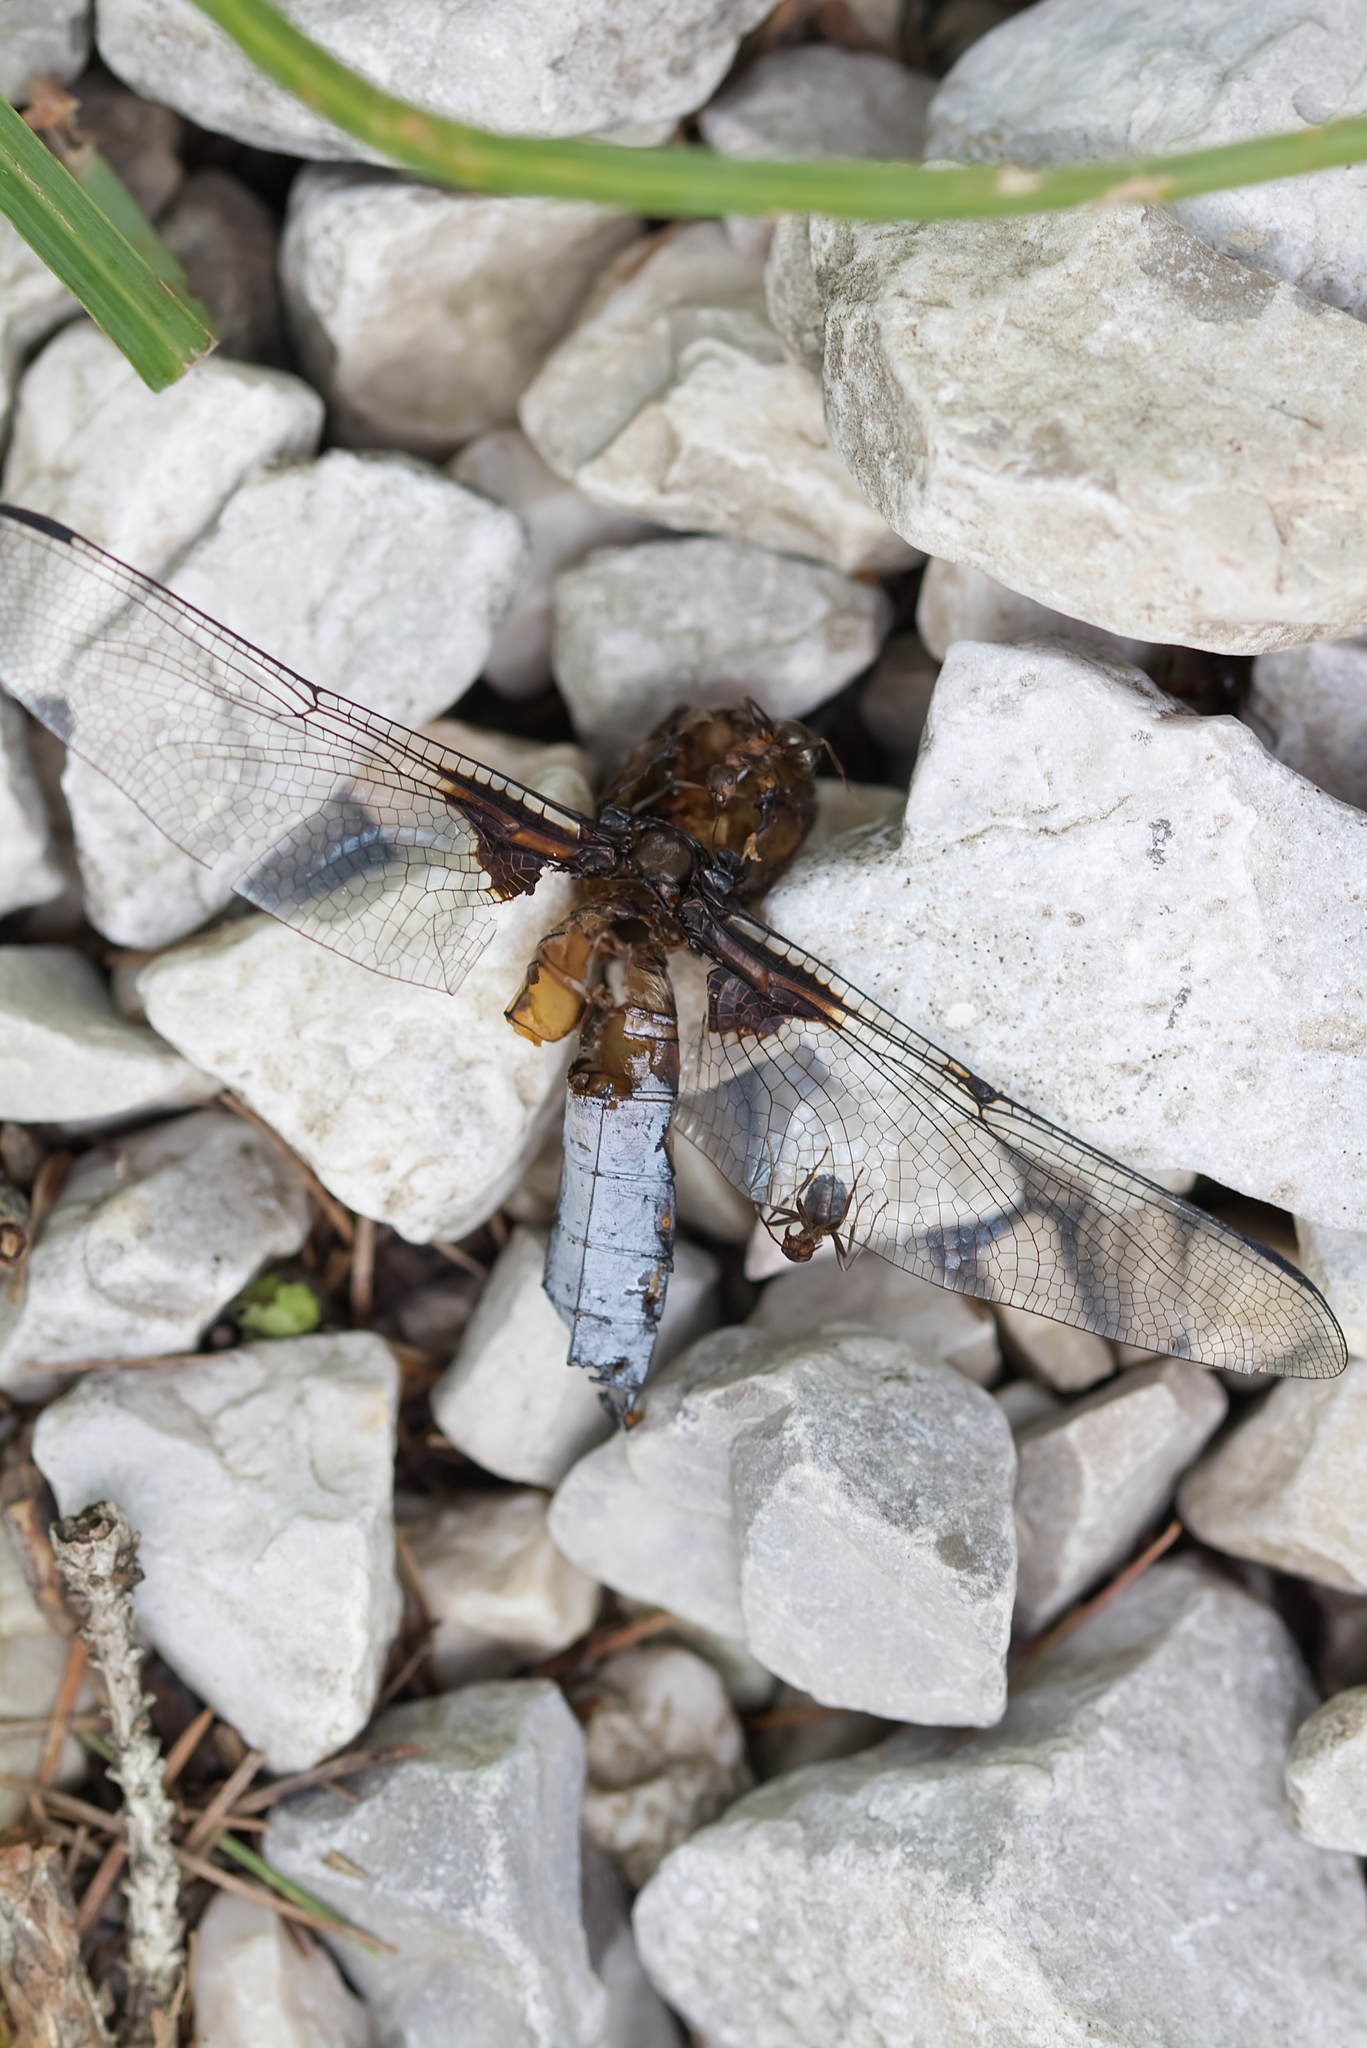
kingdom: Animalia
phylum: Arthropoda
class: Insecta
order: Odonata
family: Libellulidae
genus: Libellula
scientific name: Libellula depressa
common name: Broad-bodied chaser
